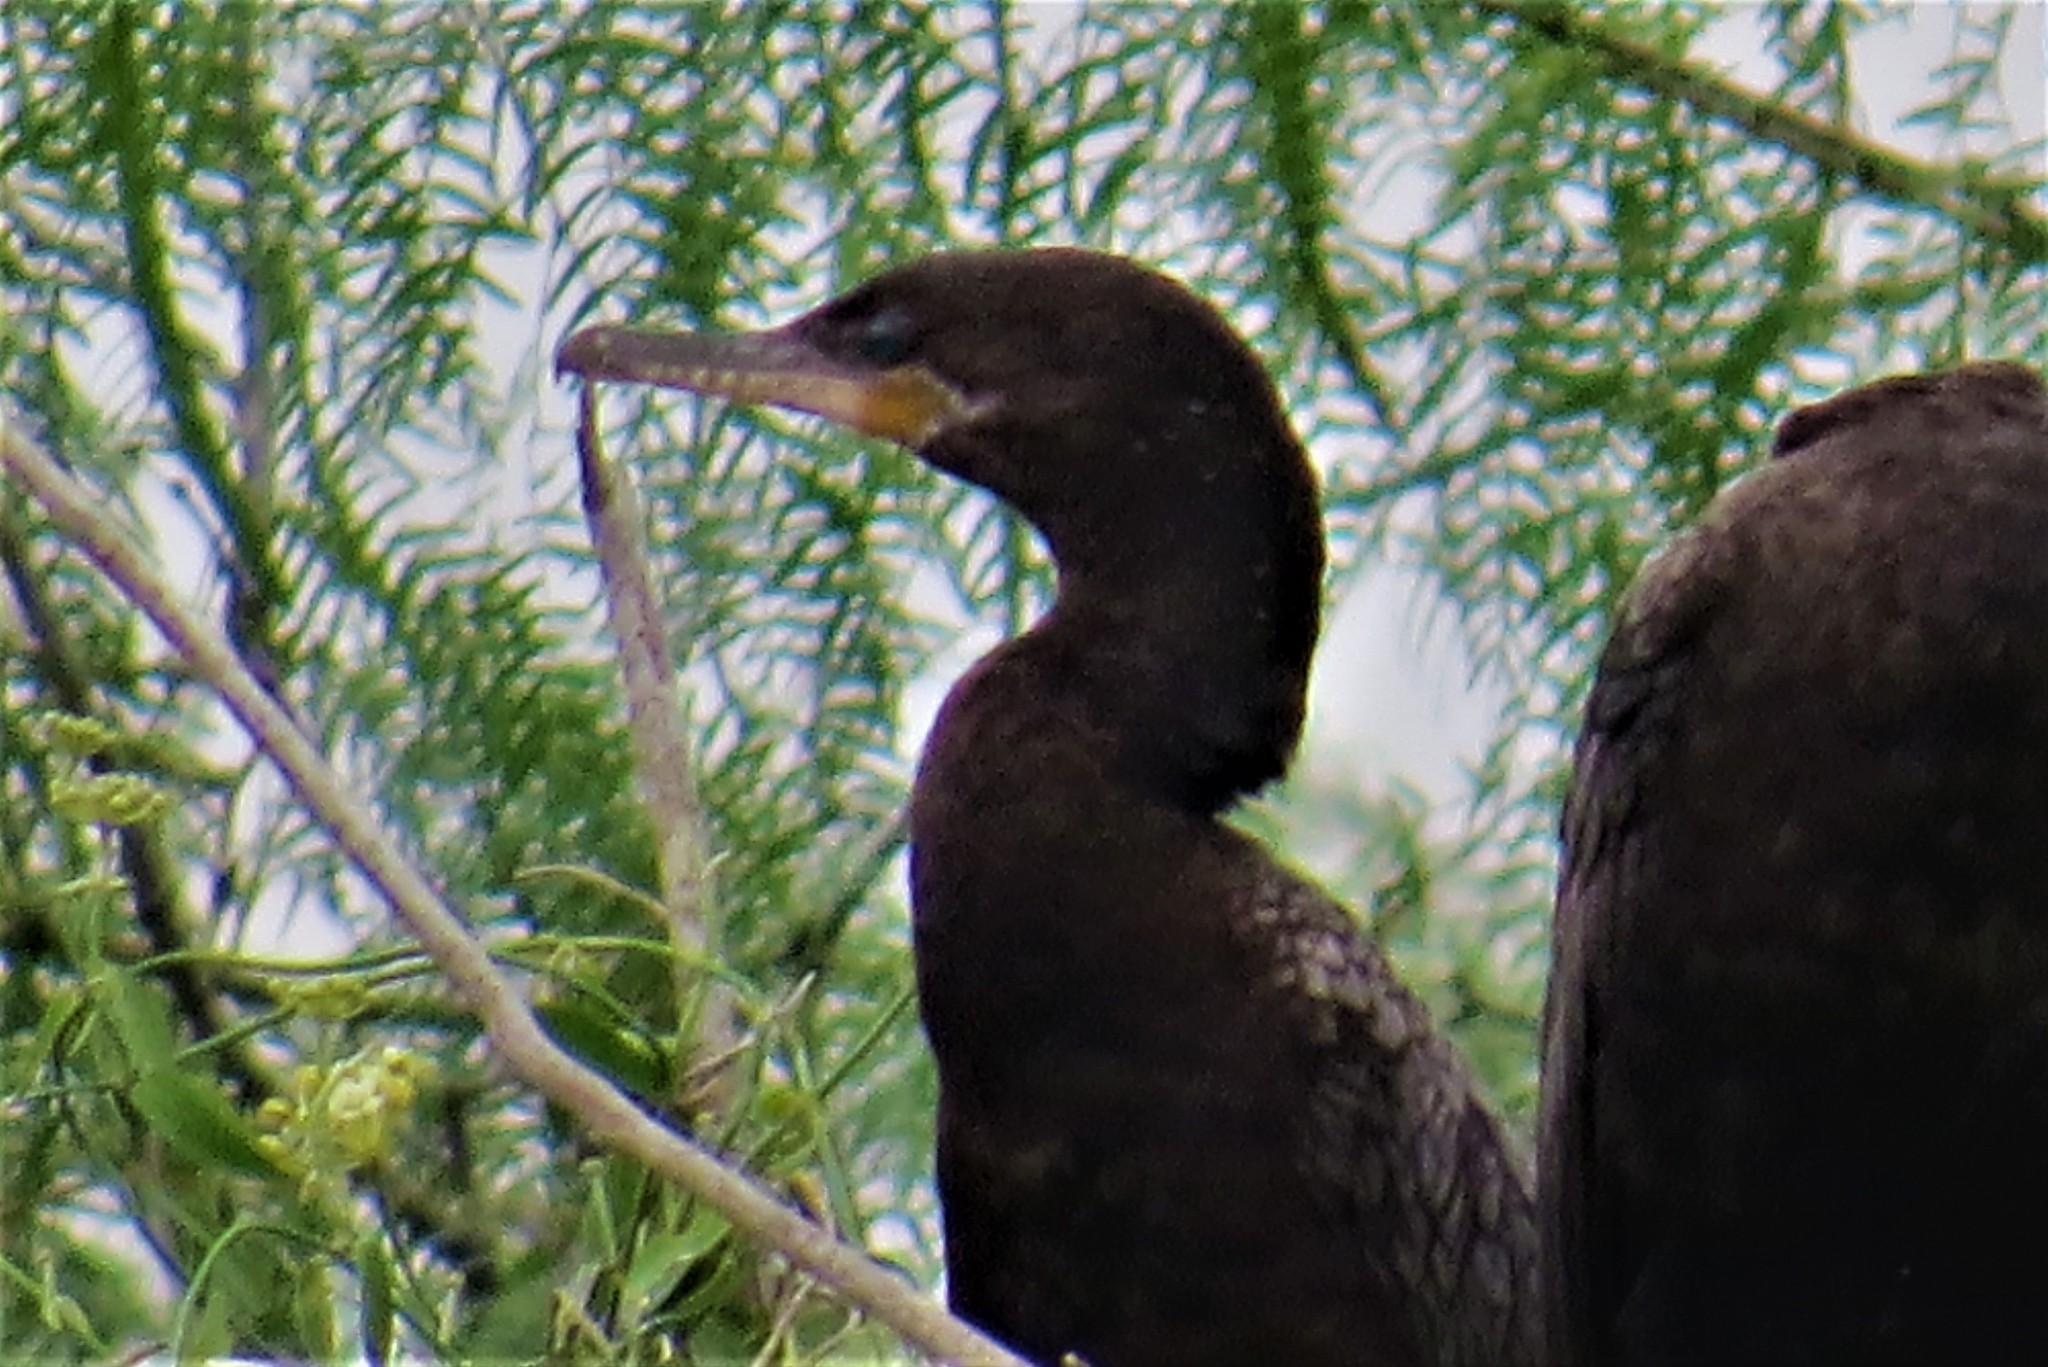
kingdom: Animalia
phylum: Chordata
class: Aves
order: Suliformes
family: Phalacrocoracidae
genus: Phalacrocorax
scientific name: Phalacrocorax brasilianus
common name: Neotropic cormorant
